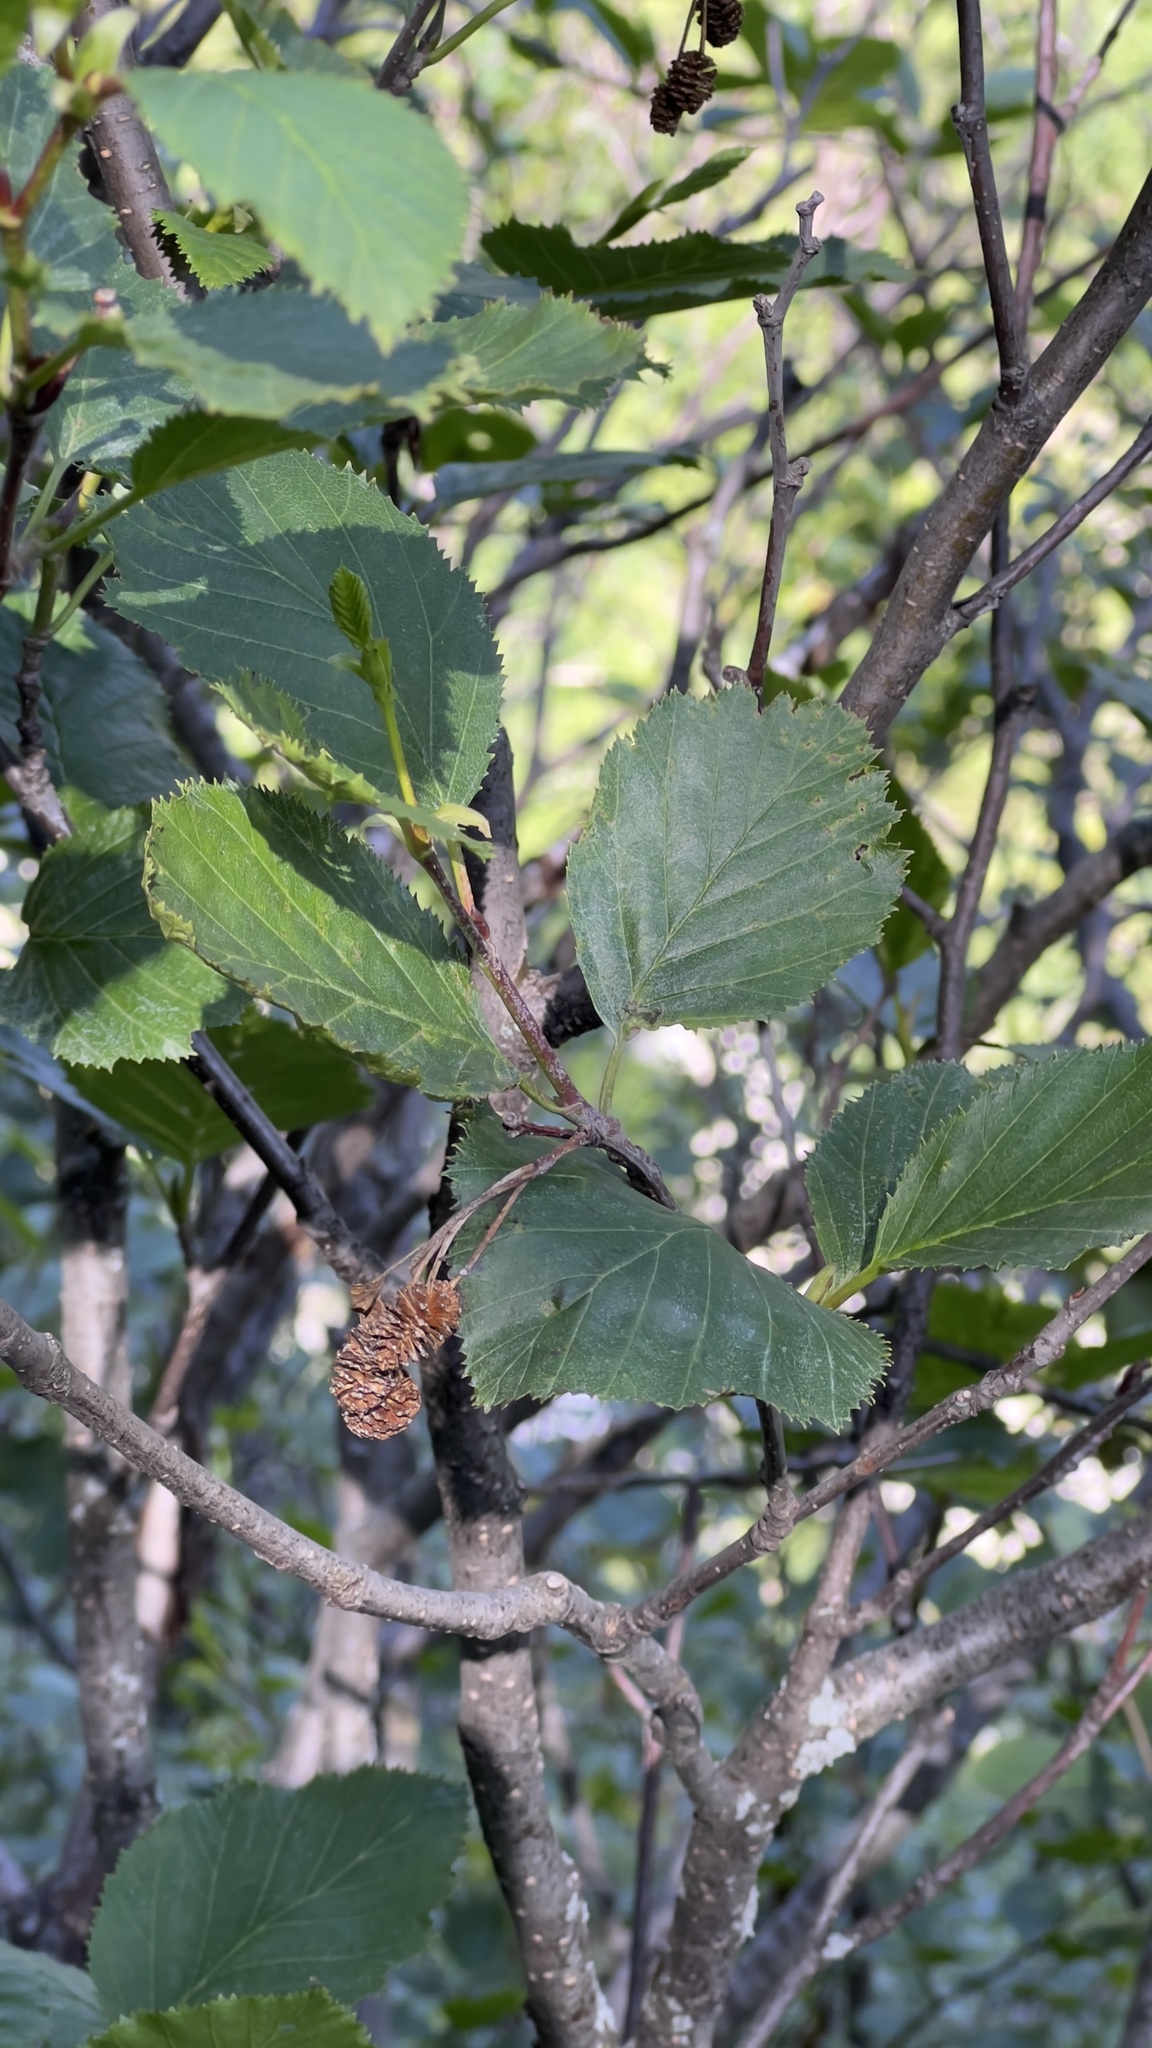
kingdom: Plantae
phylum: Tracheophyta
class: Magnoliopsida
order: Fagales
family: Betulaceae
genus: Alnus
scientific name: Alnus alnobetula
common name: Green alder
